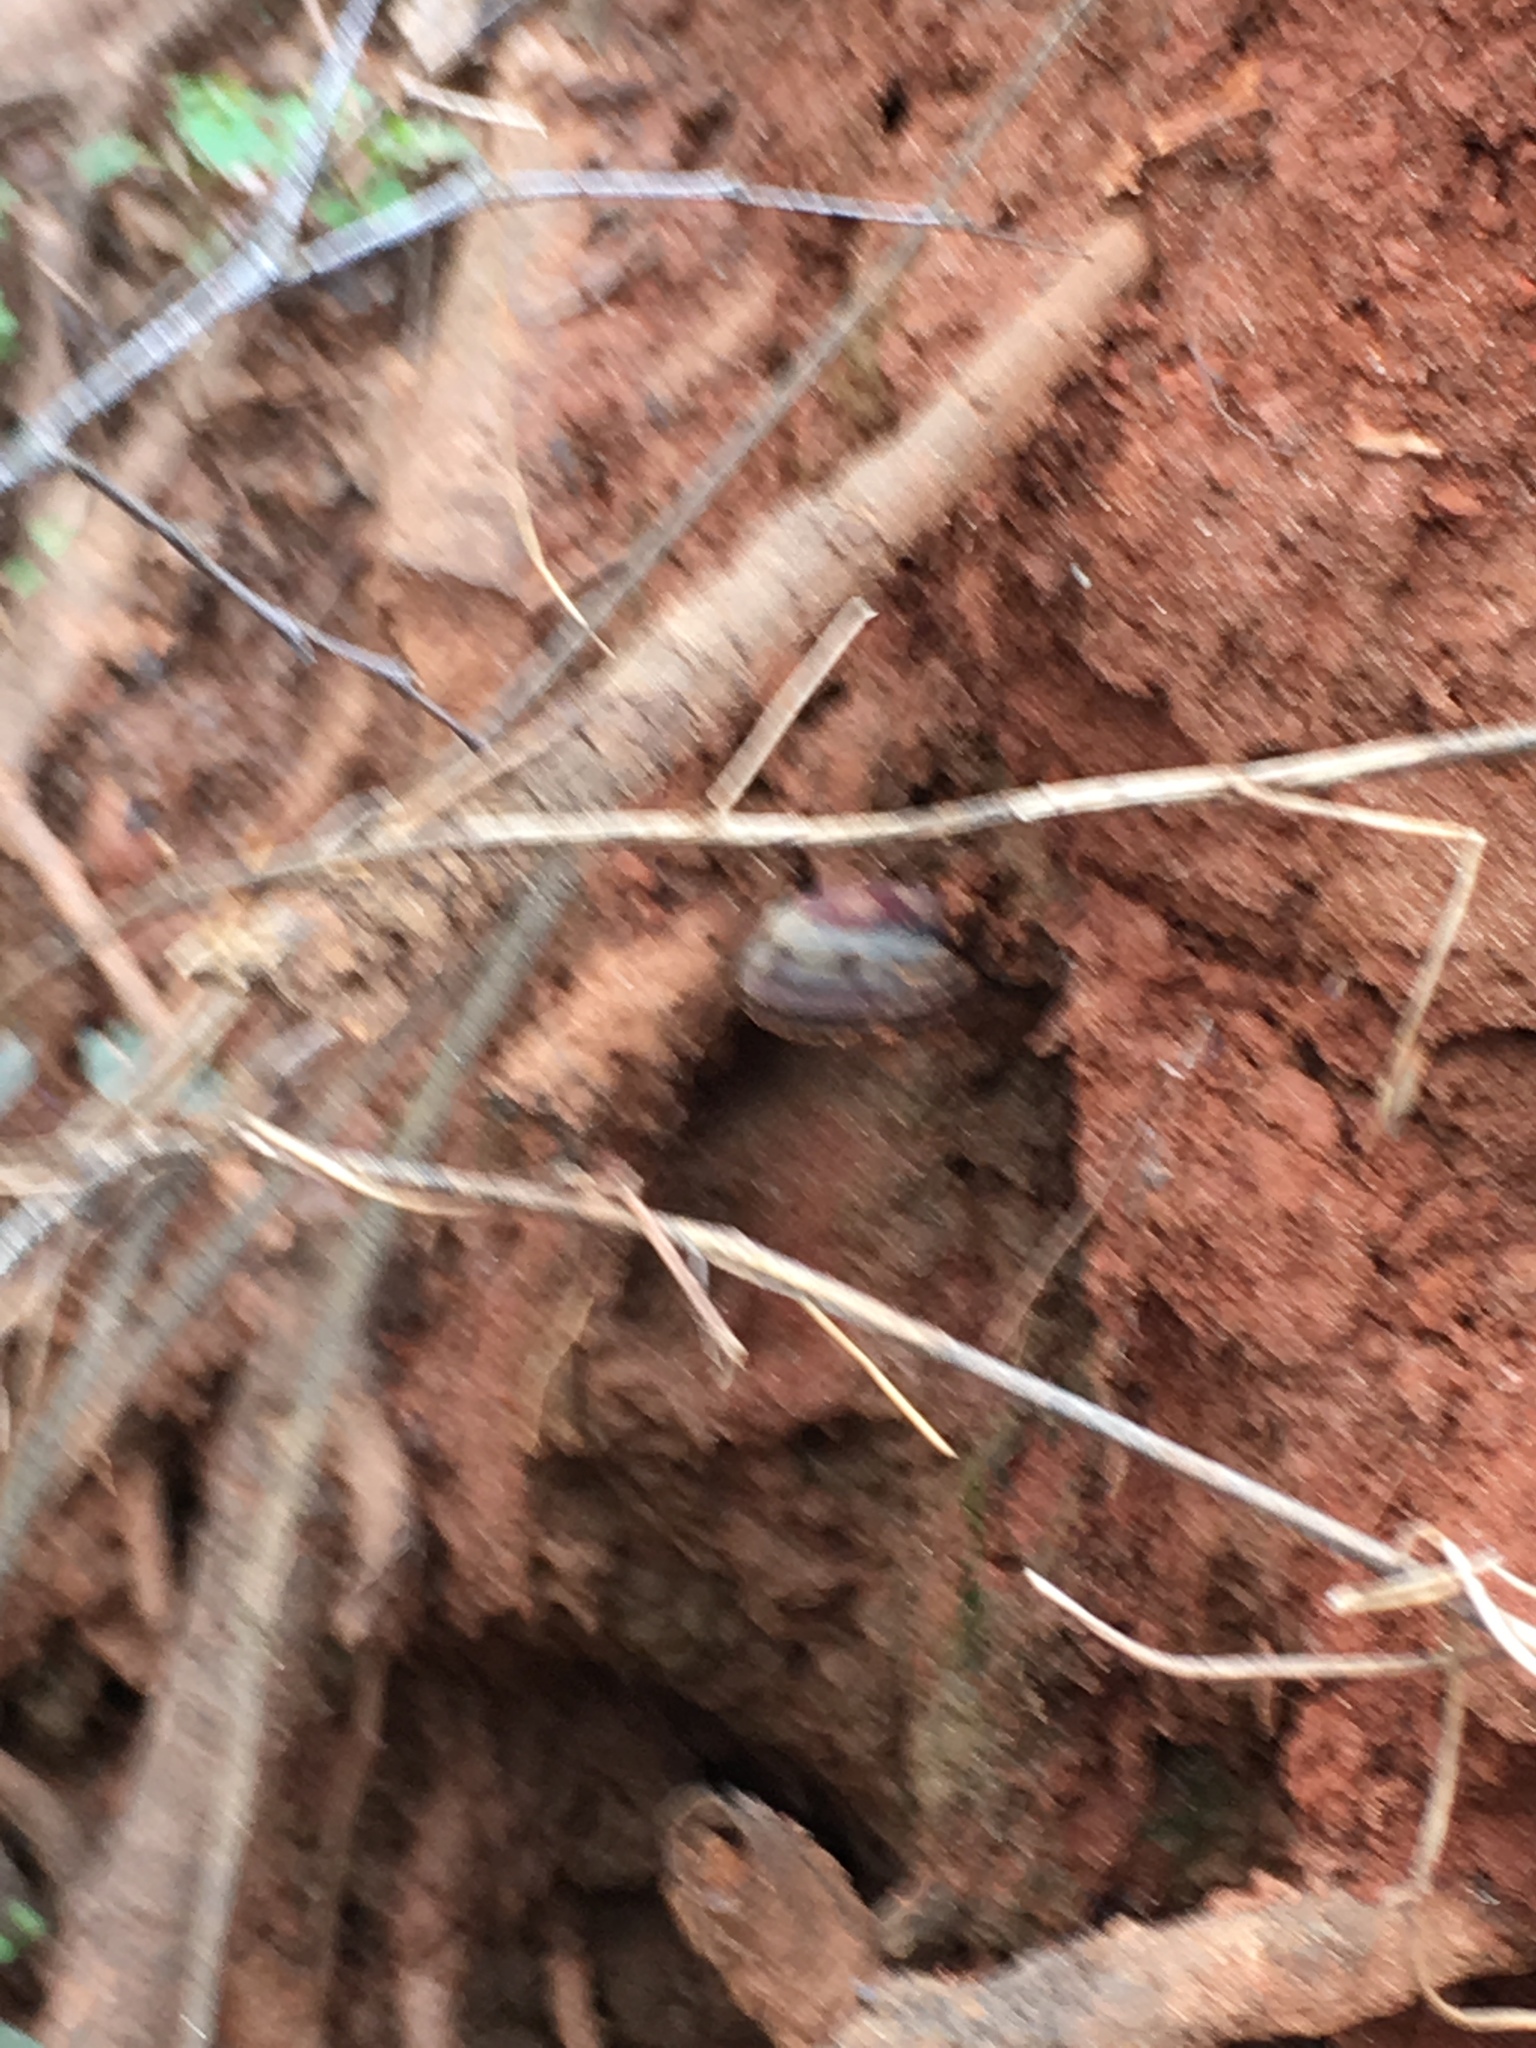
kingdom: Fungi
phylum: Basidiomycota
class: Agaricomycetes
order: Polyporales
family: Polyporaceae
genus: Ganoderma
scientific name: Ganoderma curtisii
